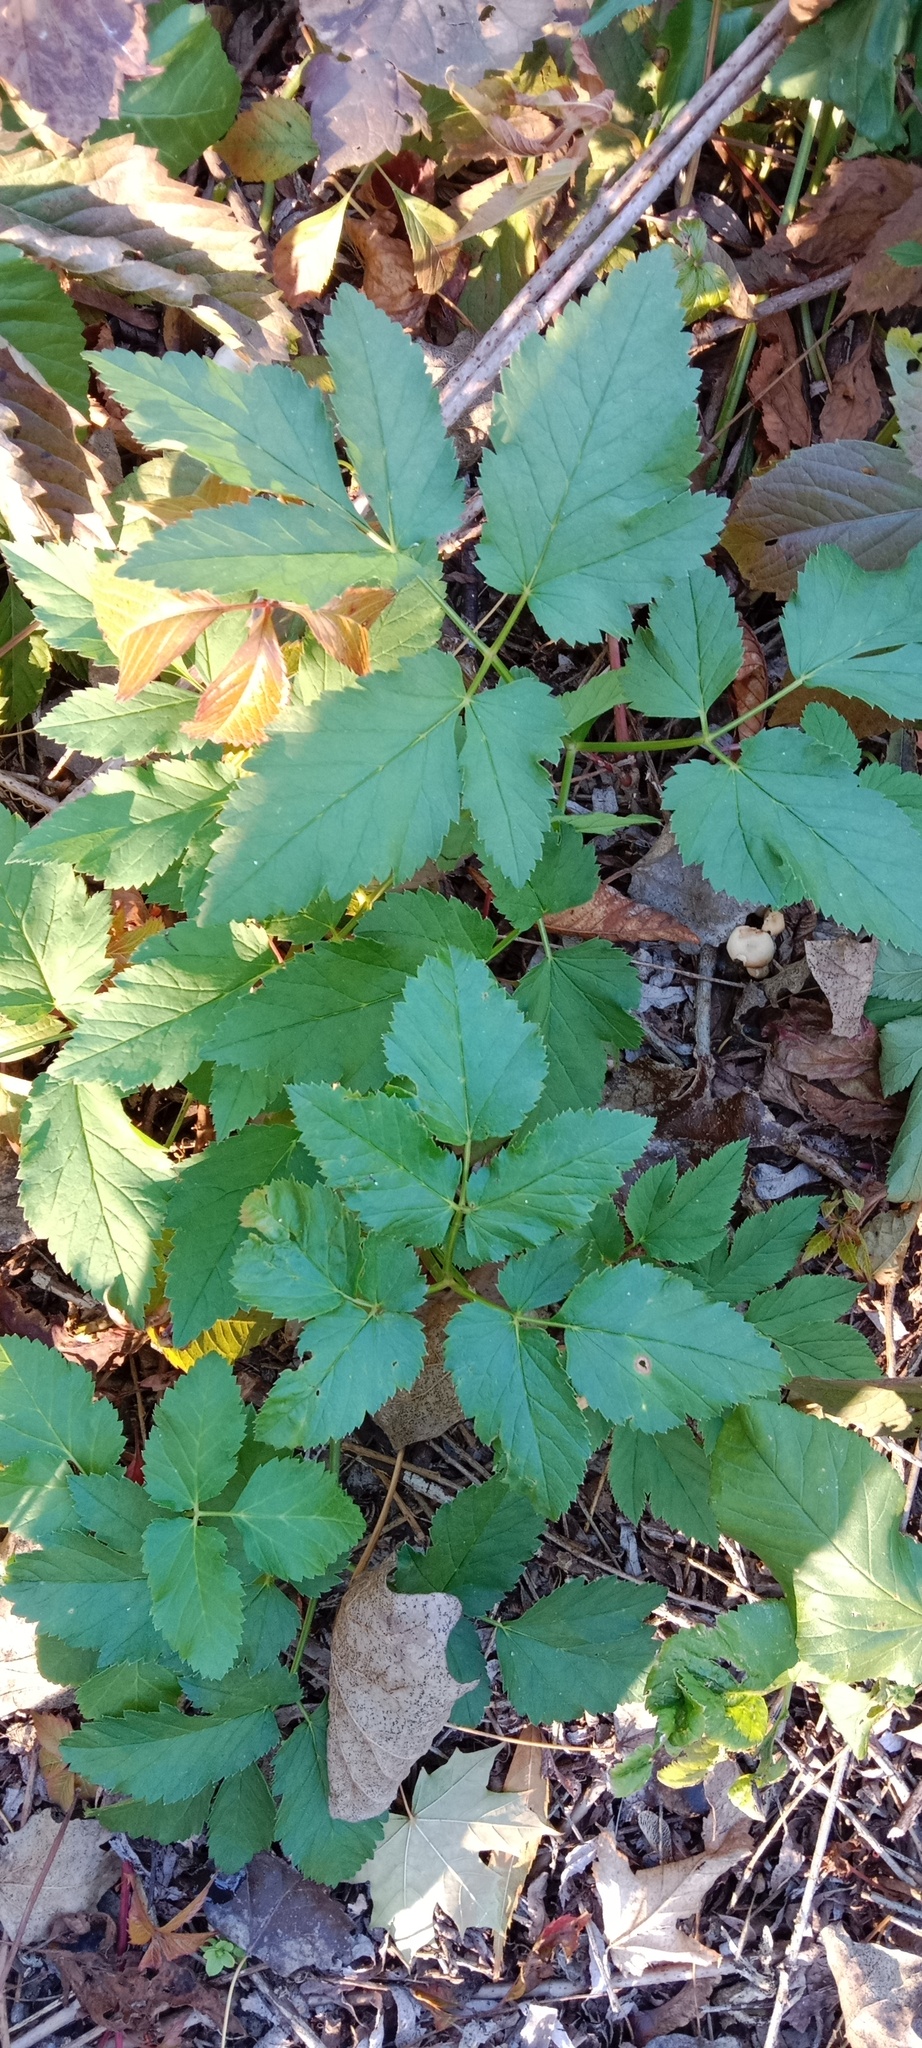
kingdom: Plantae
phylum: Tracheophyta
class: Magnoliopsida
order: Apiales
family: Apiaceae
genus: Aegopodium
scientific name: Aegopodium podagraria
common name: Ground-elder
